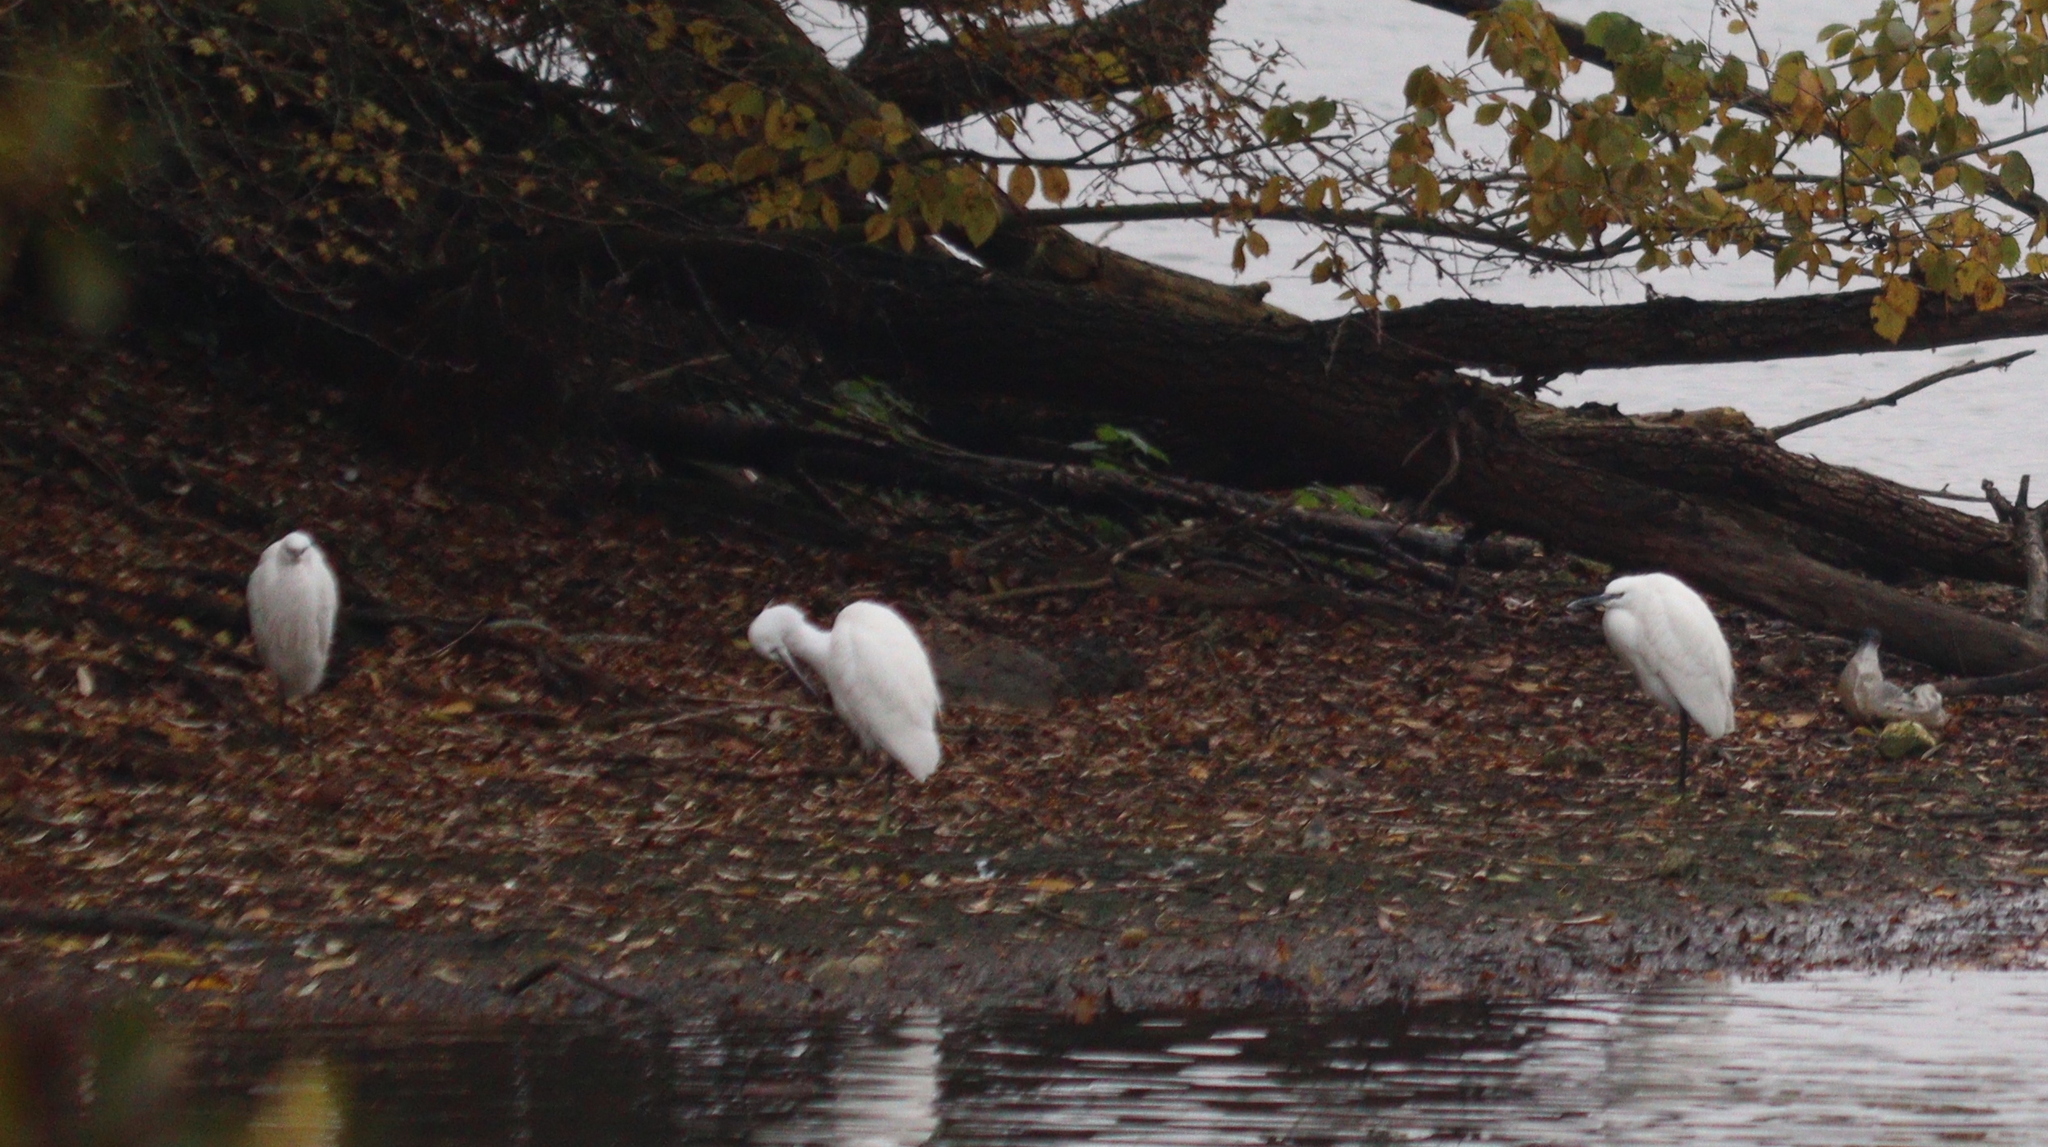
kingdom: Animalia
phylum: Chordata
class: Aves
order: Pelecaniformes
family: Ardeidae
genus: Egretta
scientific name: Egretta garzetta
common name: Little egret
